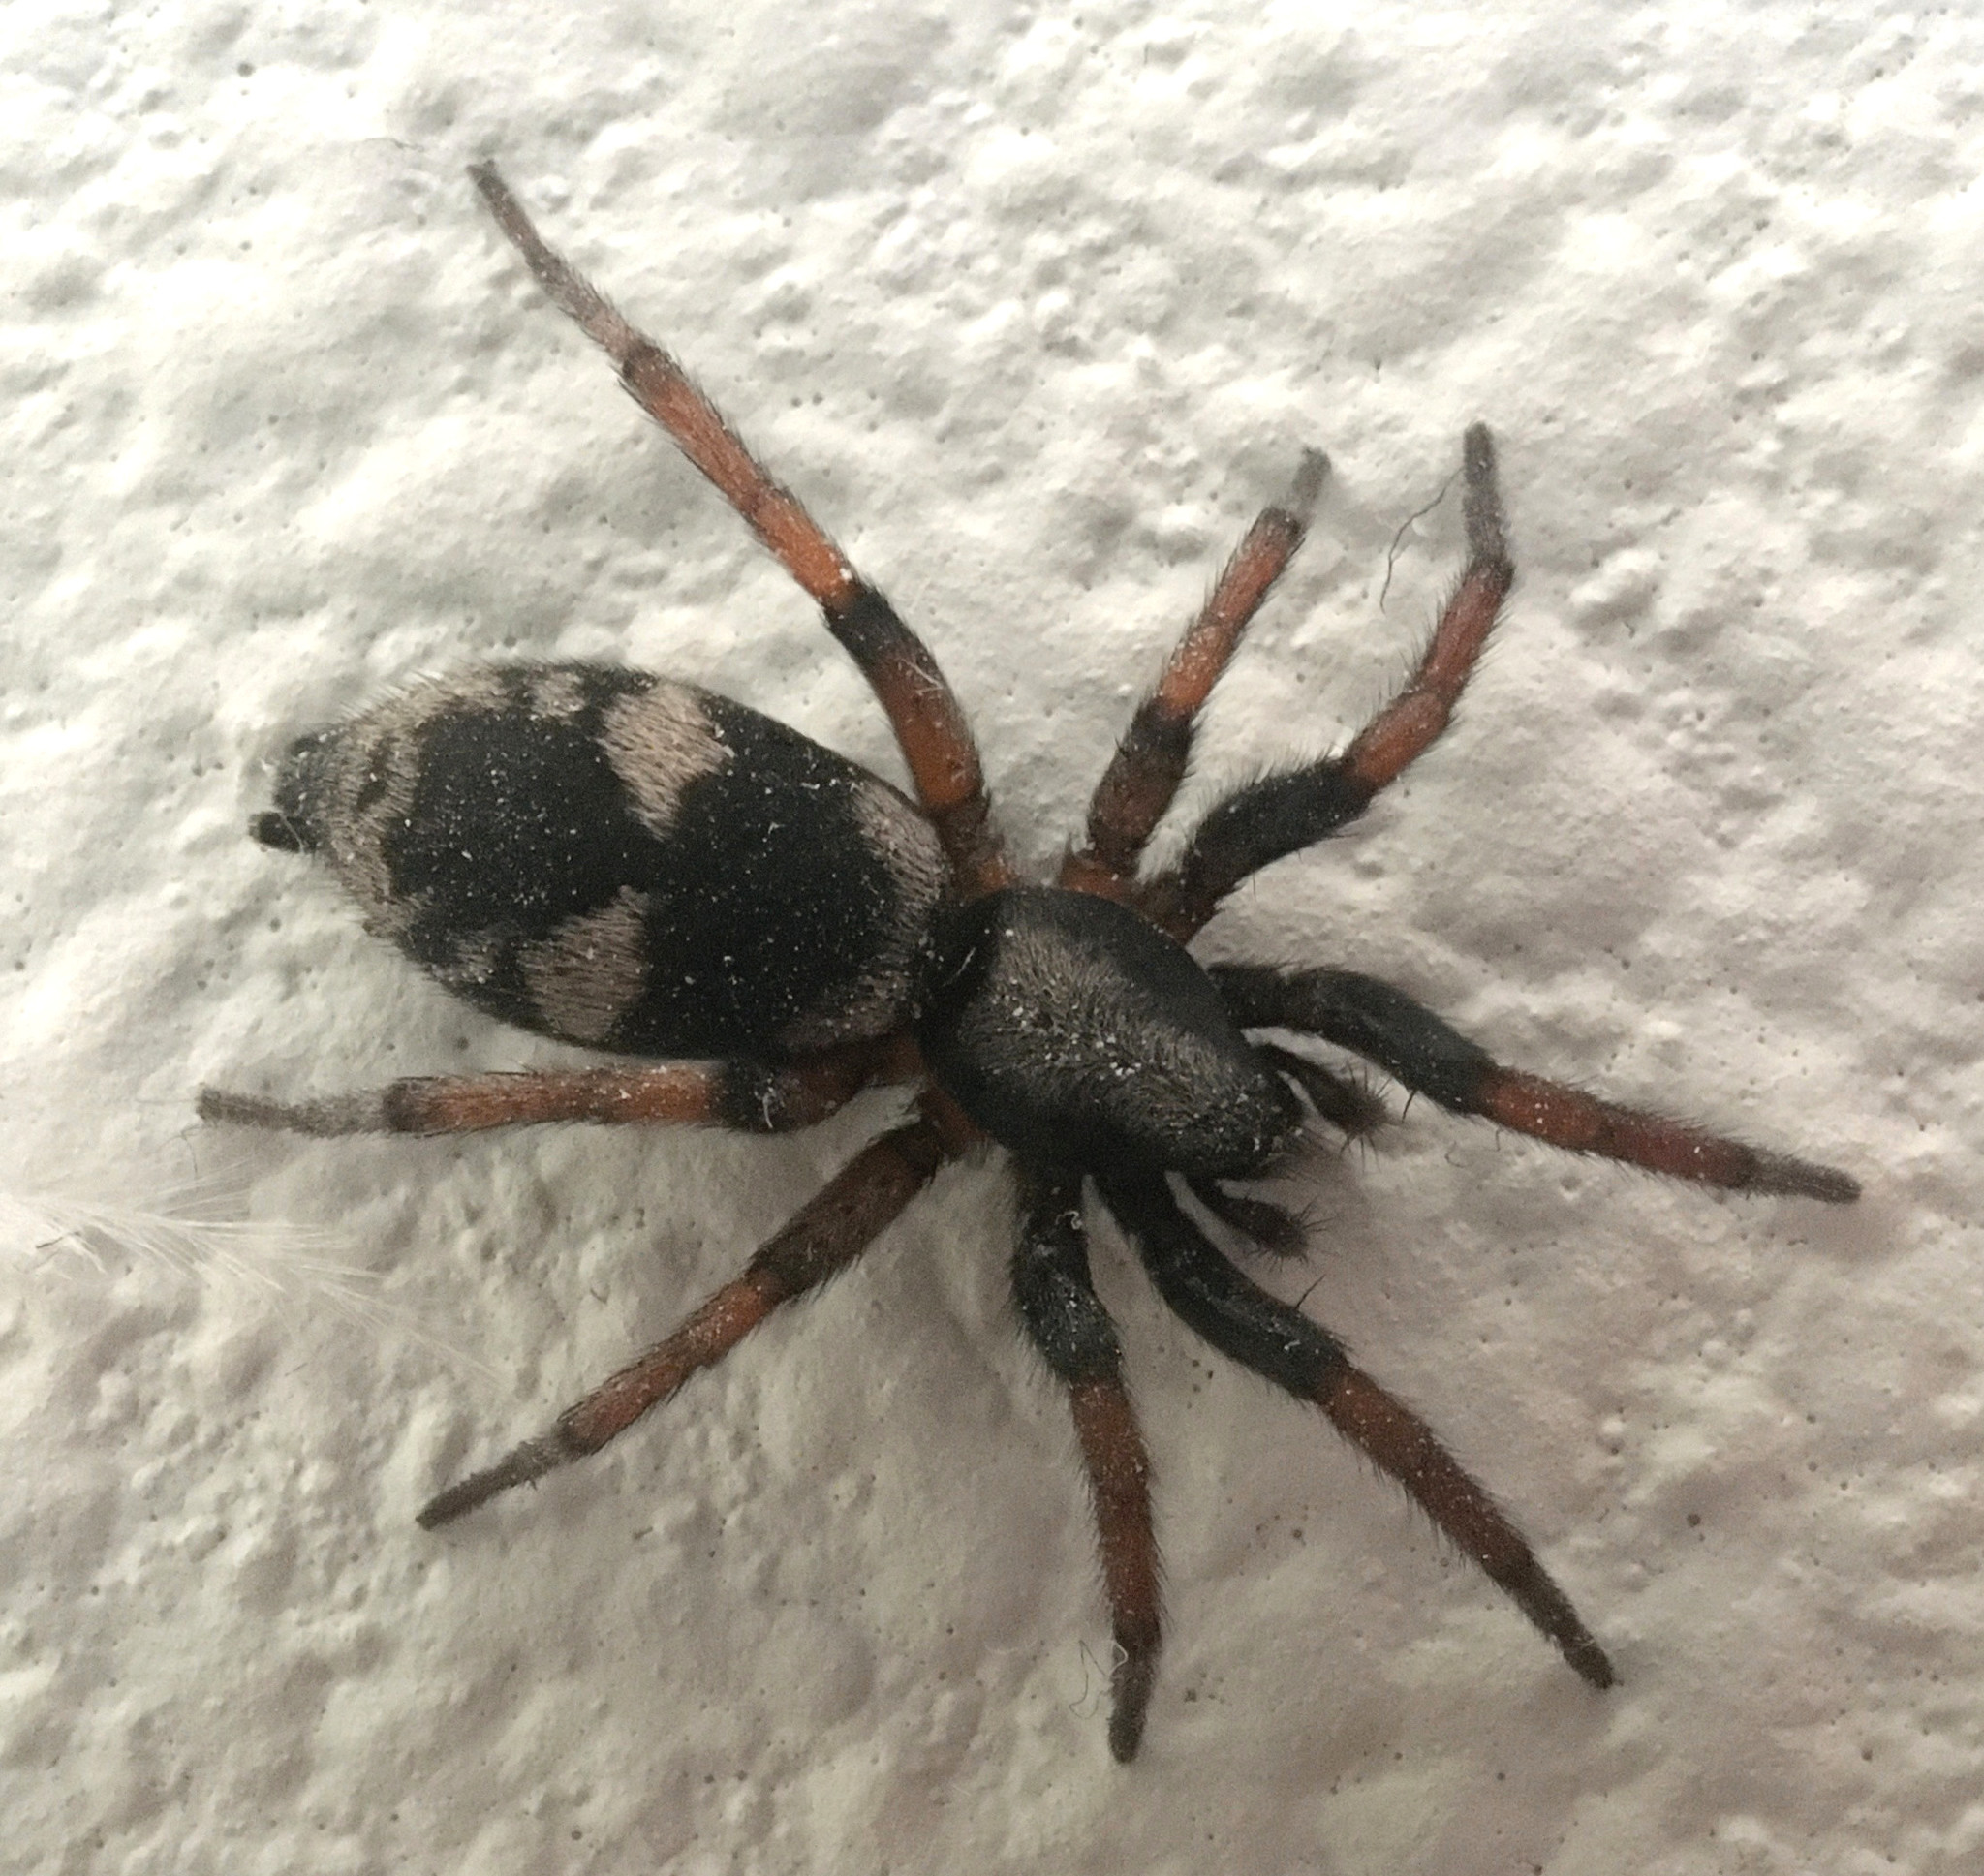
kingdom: Animalia
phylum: Arthropoda
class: Arachnida
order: Araneae
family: Gnaphosidae
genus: Sergiolus
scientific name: Sergiolus
